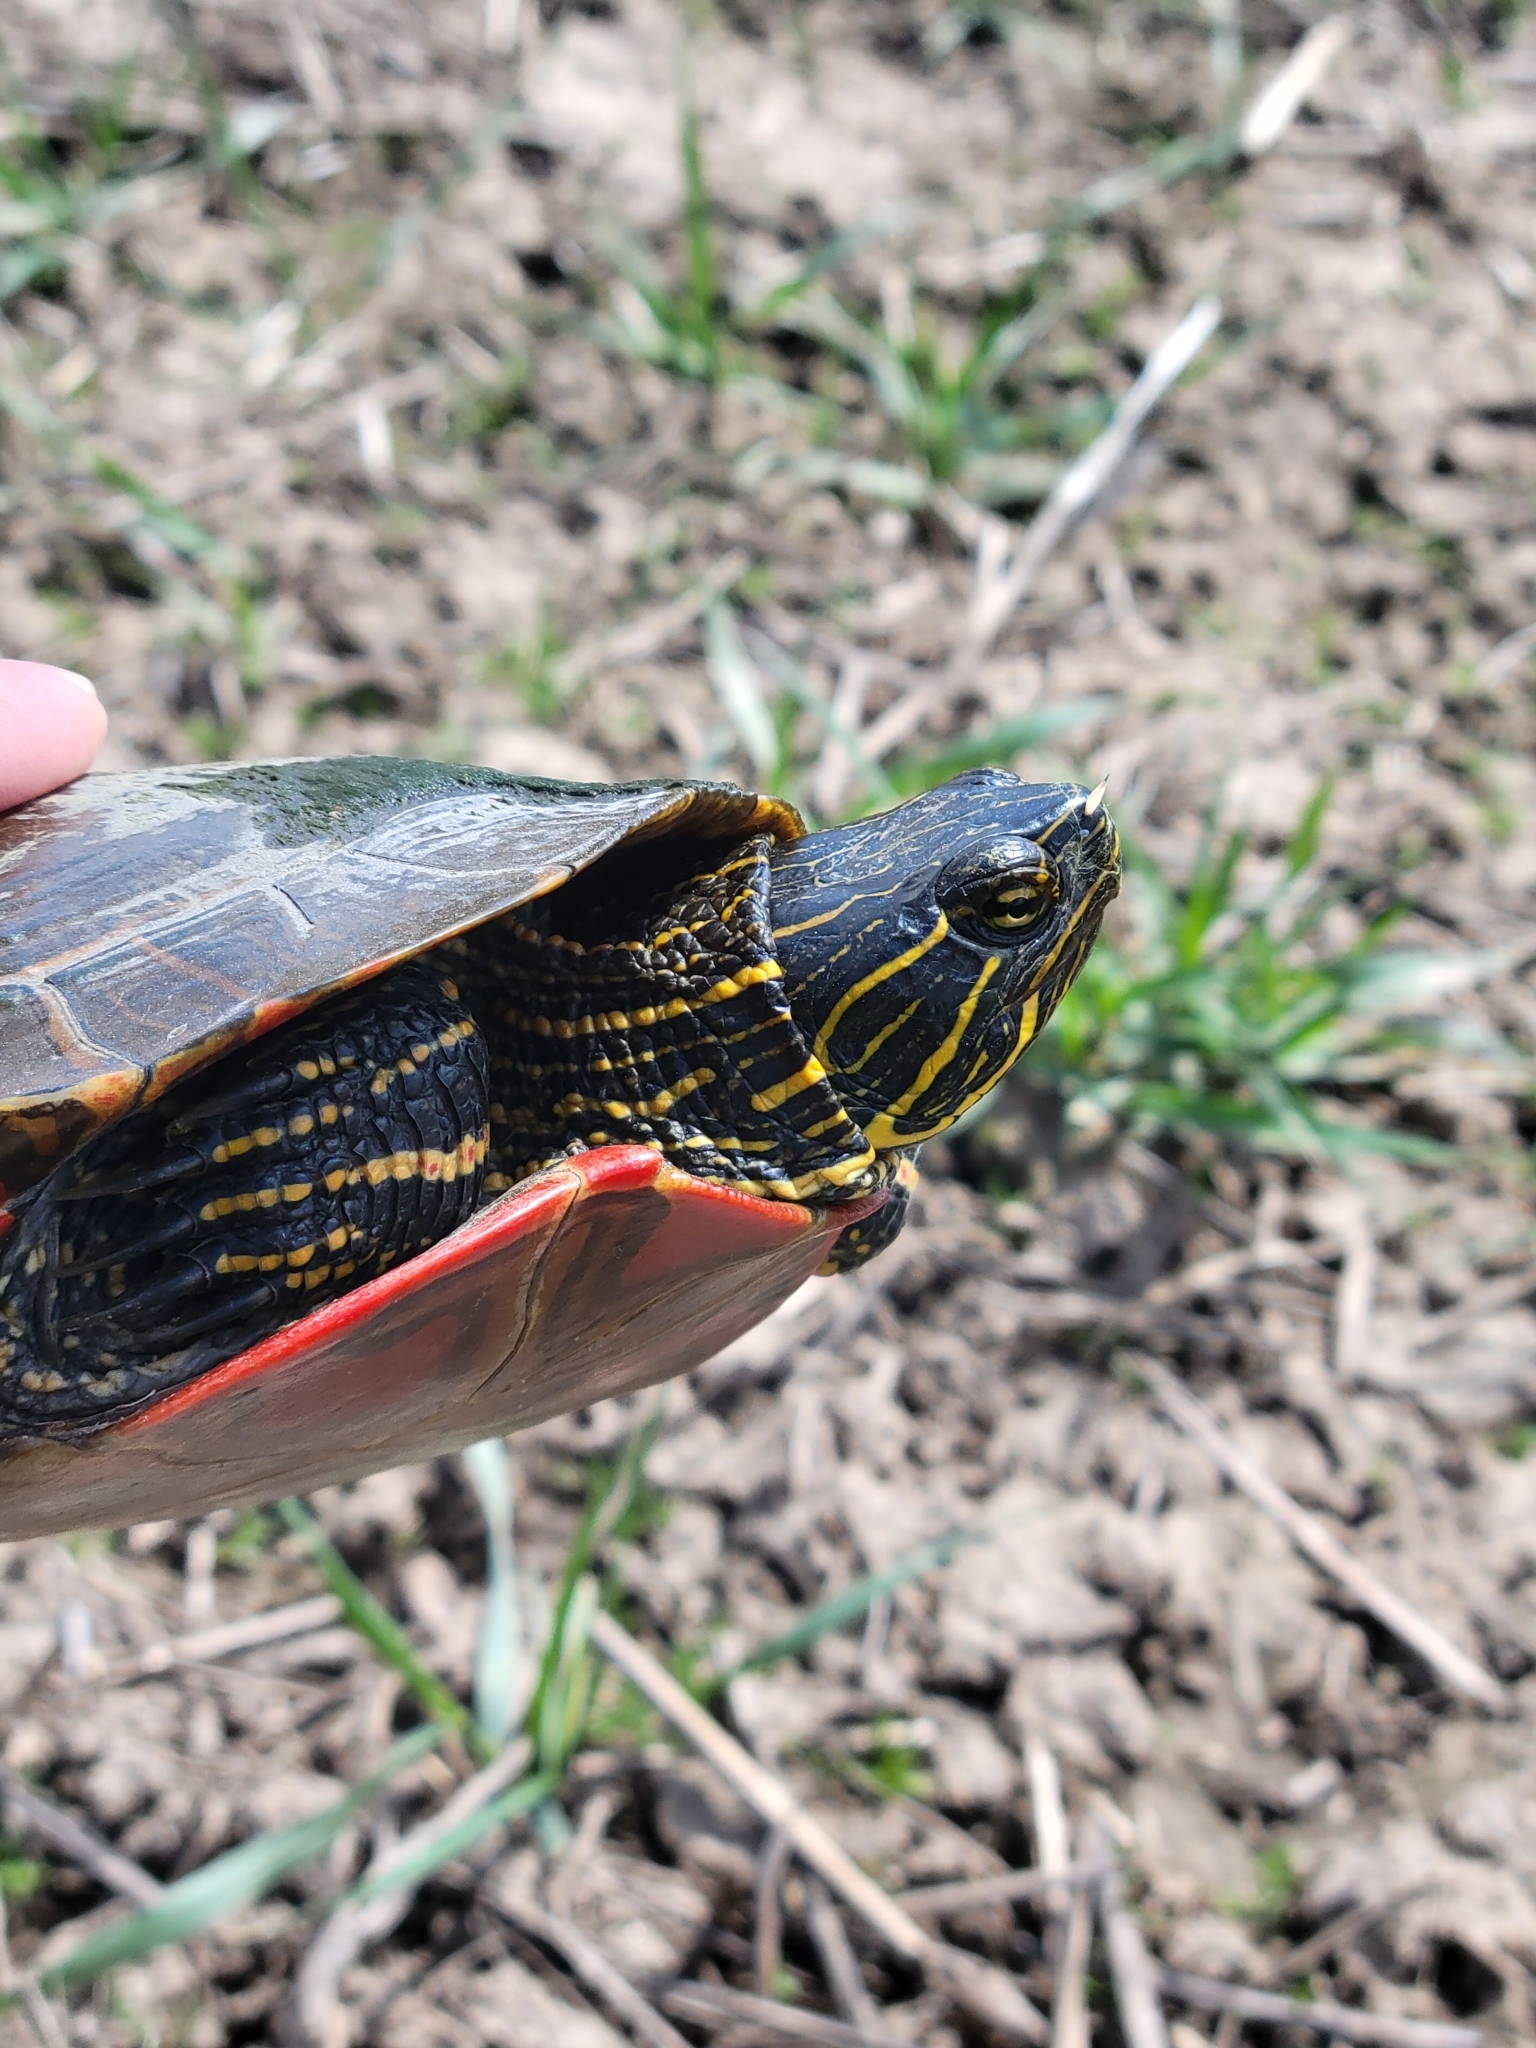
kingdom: Animalia
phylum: Chordata
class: Testudines
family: Emydidae
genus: Chrysemys
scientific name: Chrysemys picta
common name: Painted turtle
